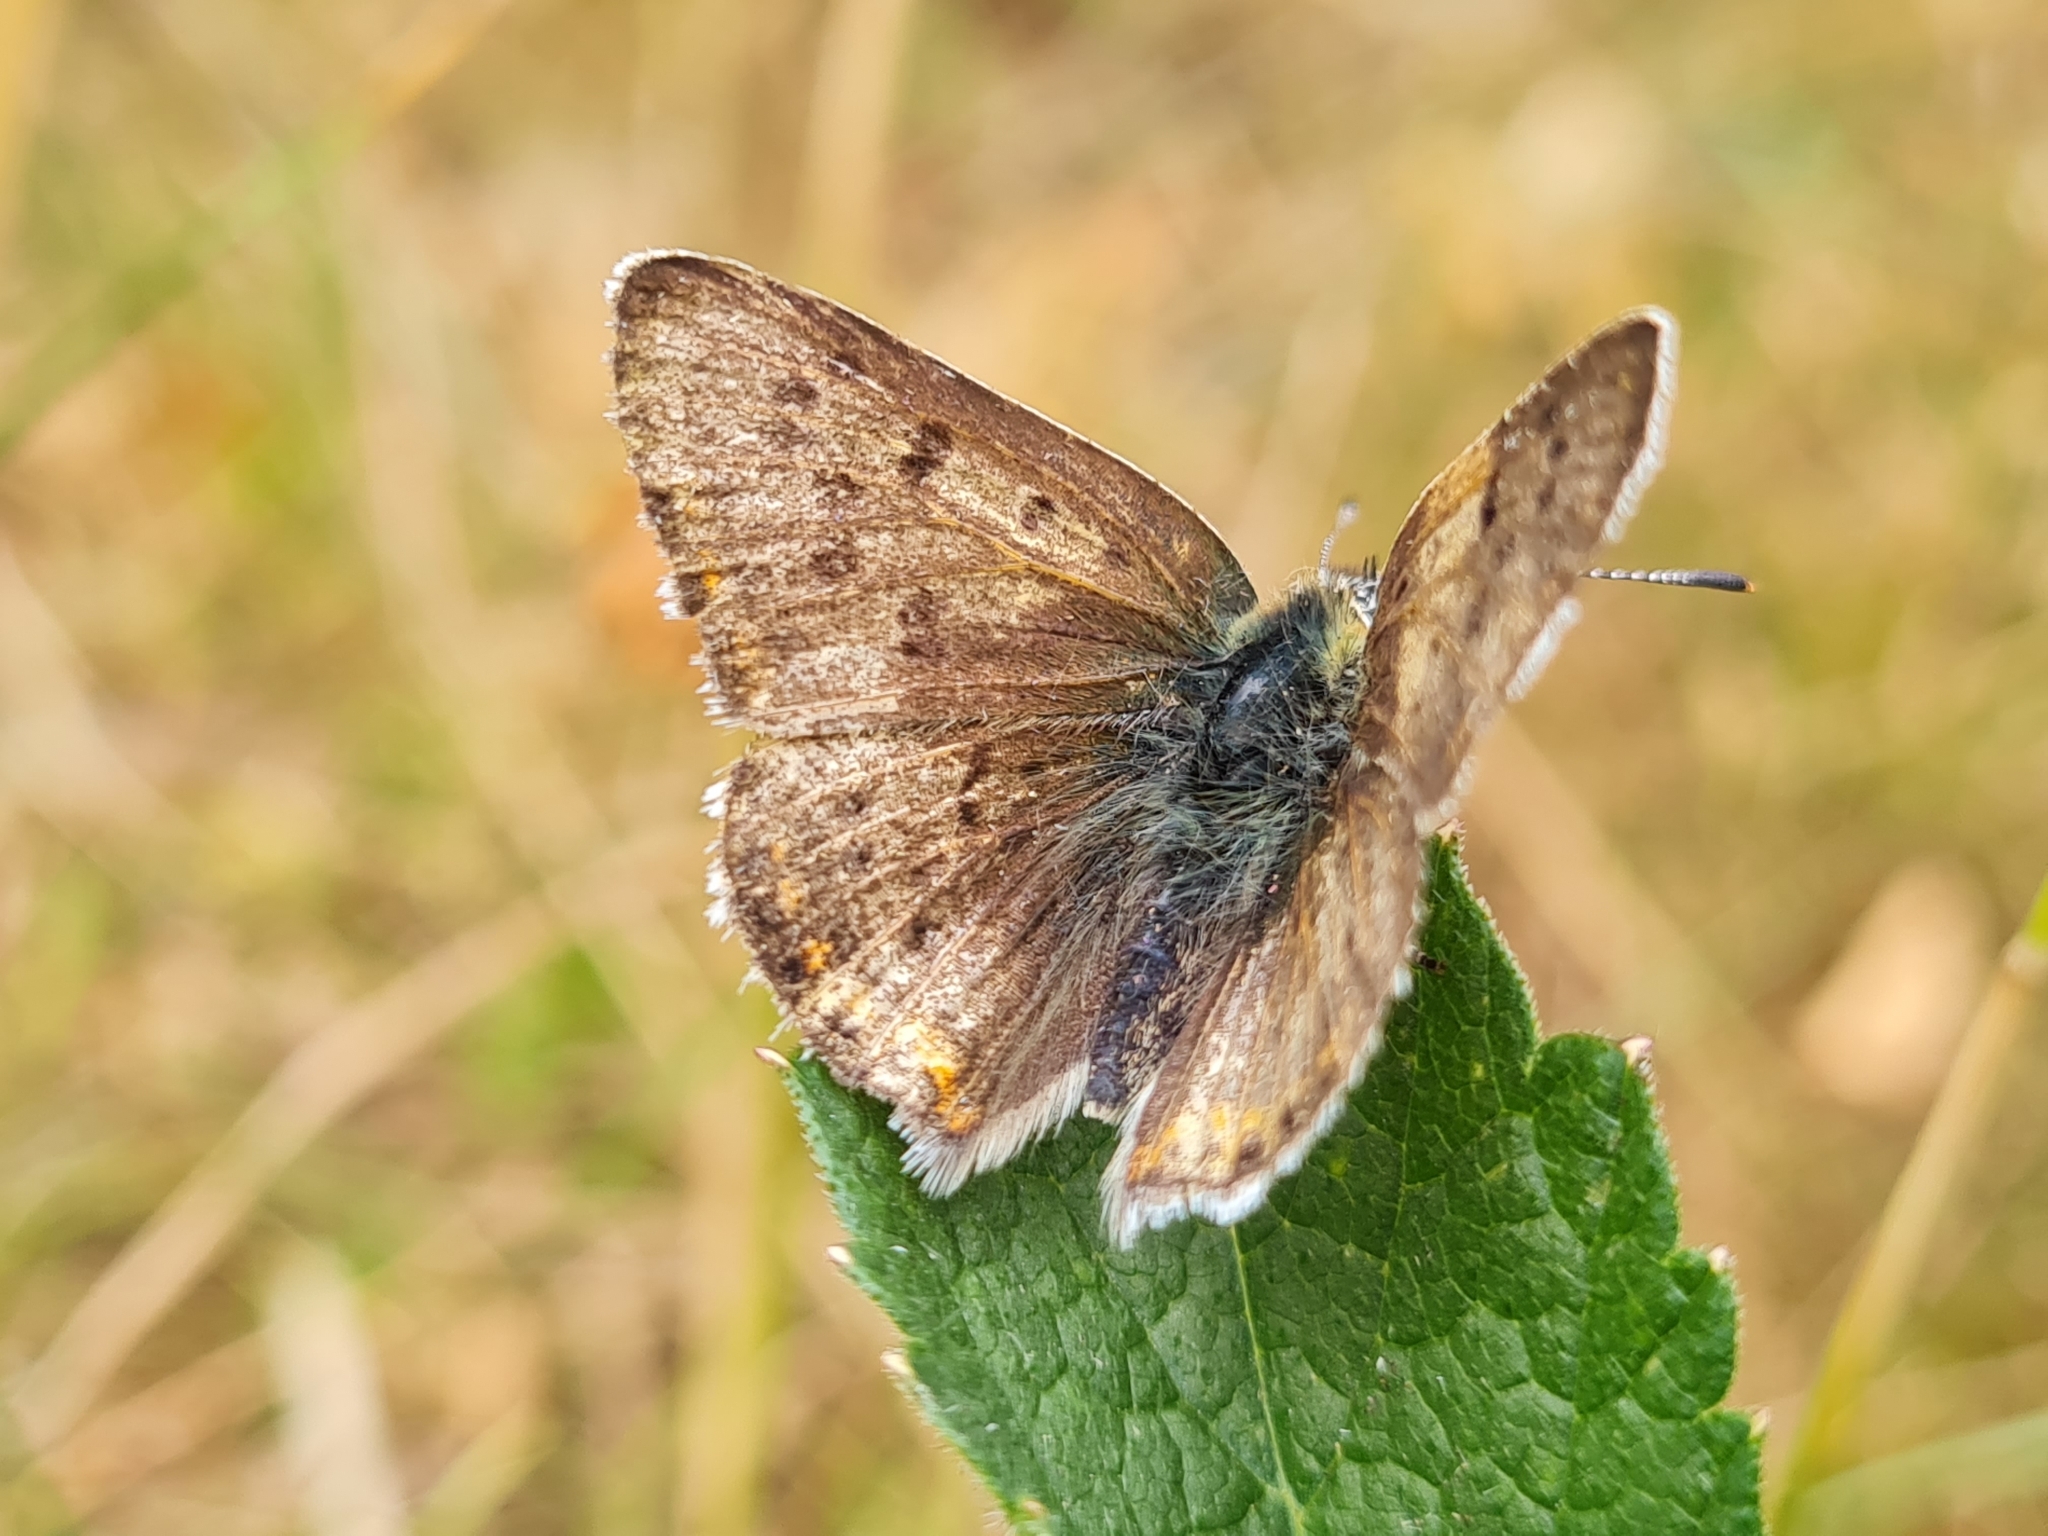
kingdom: Animalia
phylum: Arthropoda
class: Insecta
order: Lepidoptera
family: Lycaenidae
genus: Loweia
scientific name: Loweia tityrus
